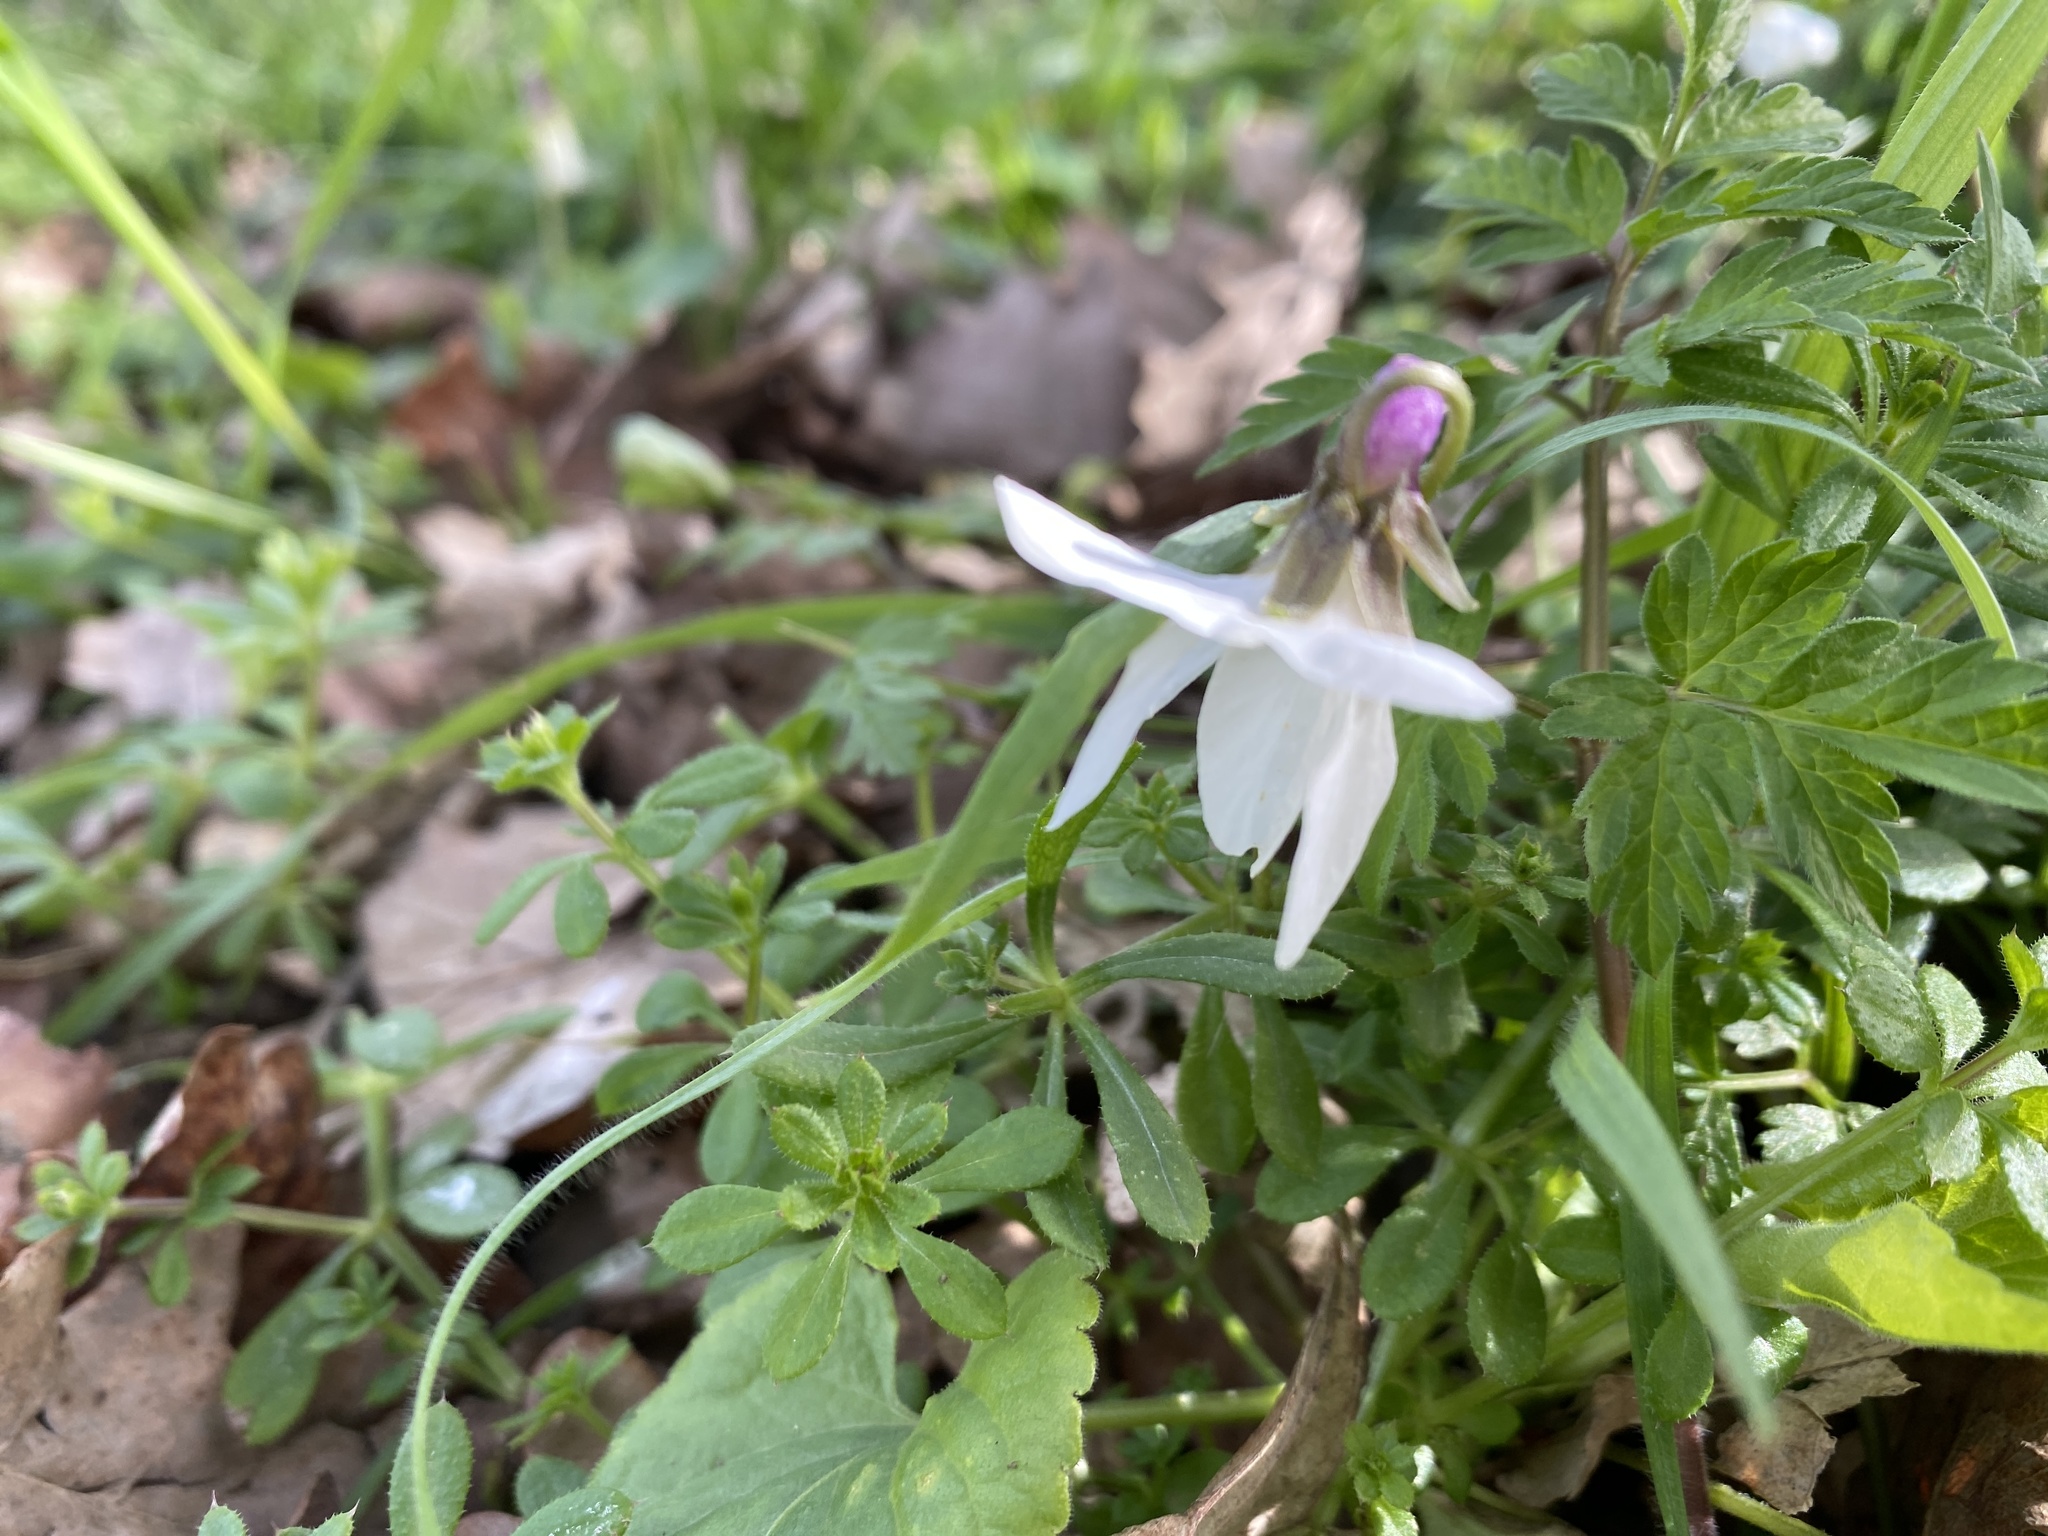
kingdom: Plantae
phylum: Tracheophyta
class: Magnoliopsida
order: Malpighiales
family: Violaceae
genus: Viola
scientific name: Viola odorata
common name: Sweet violet
